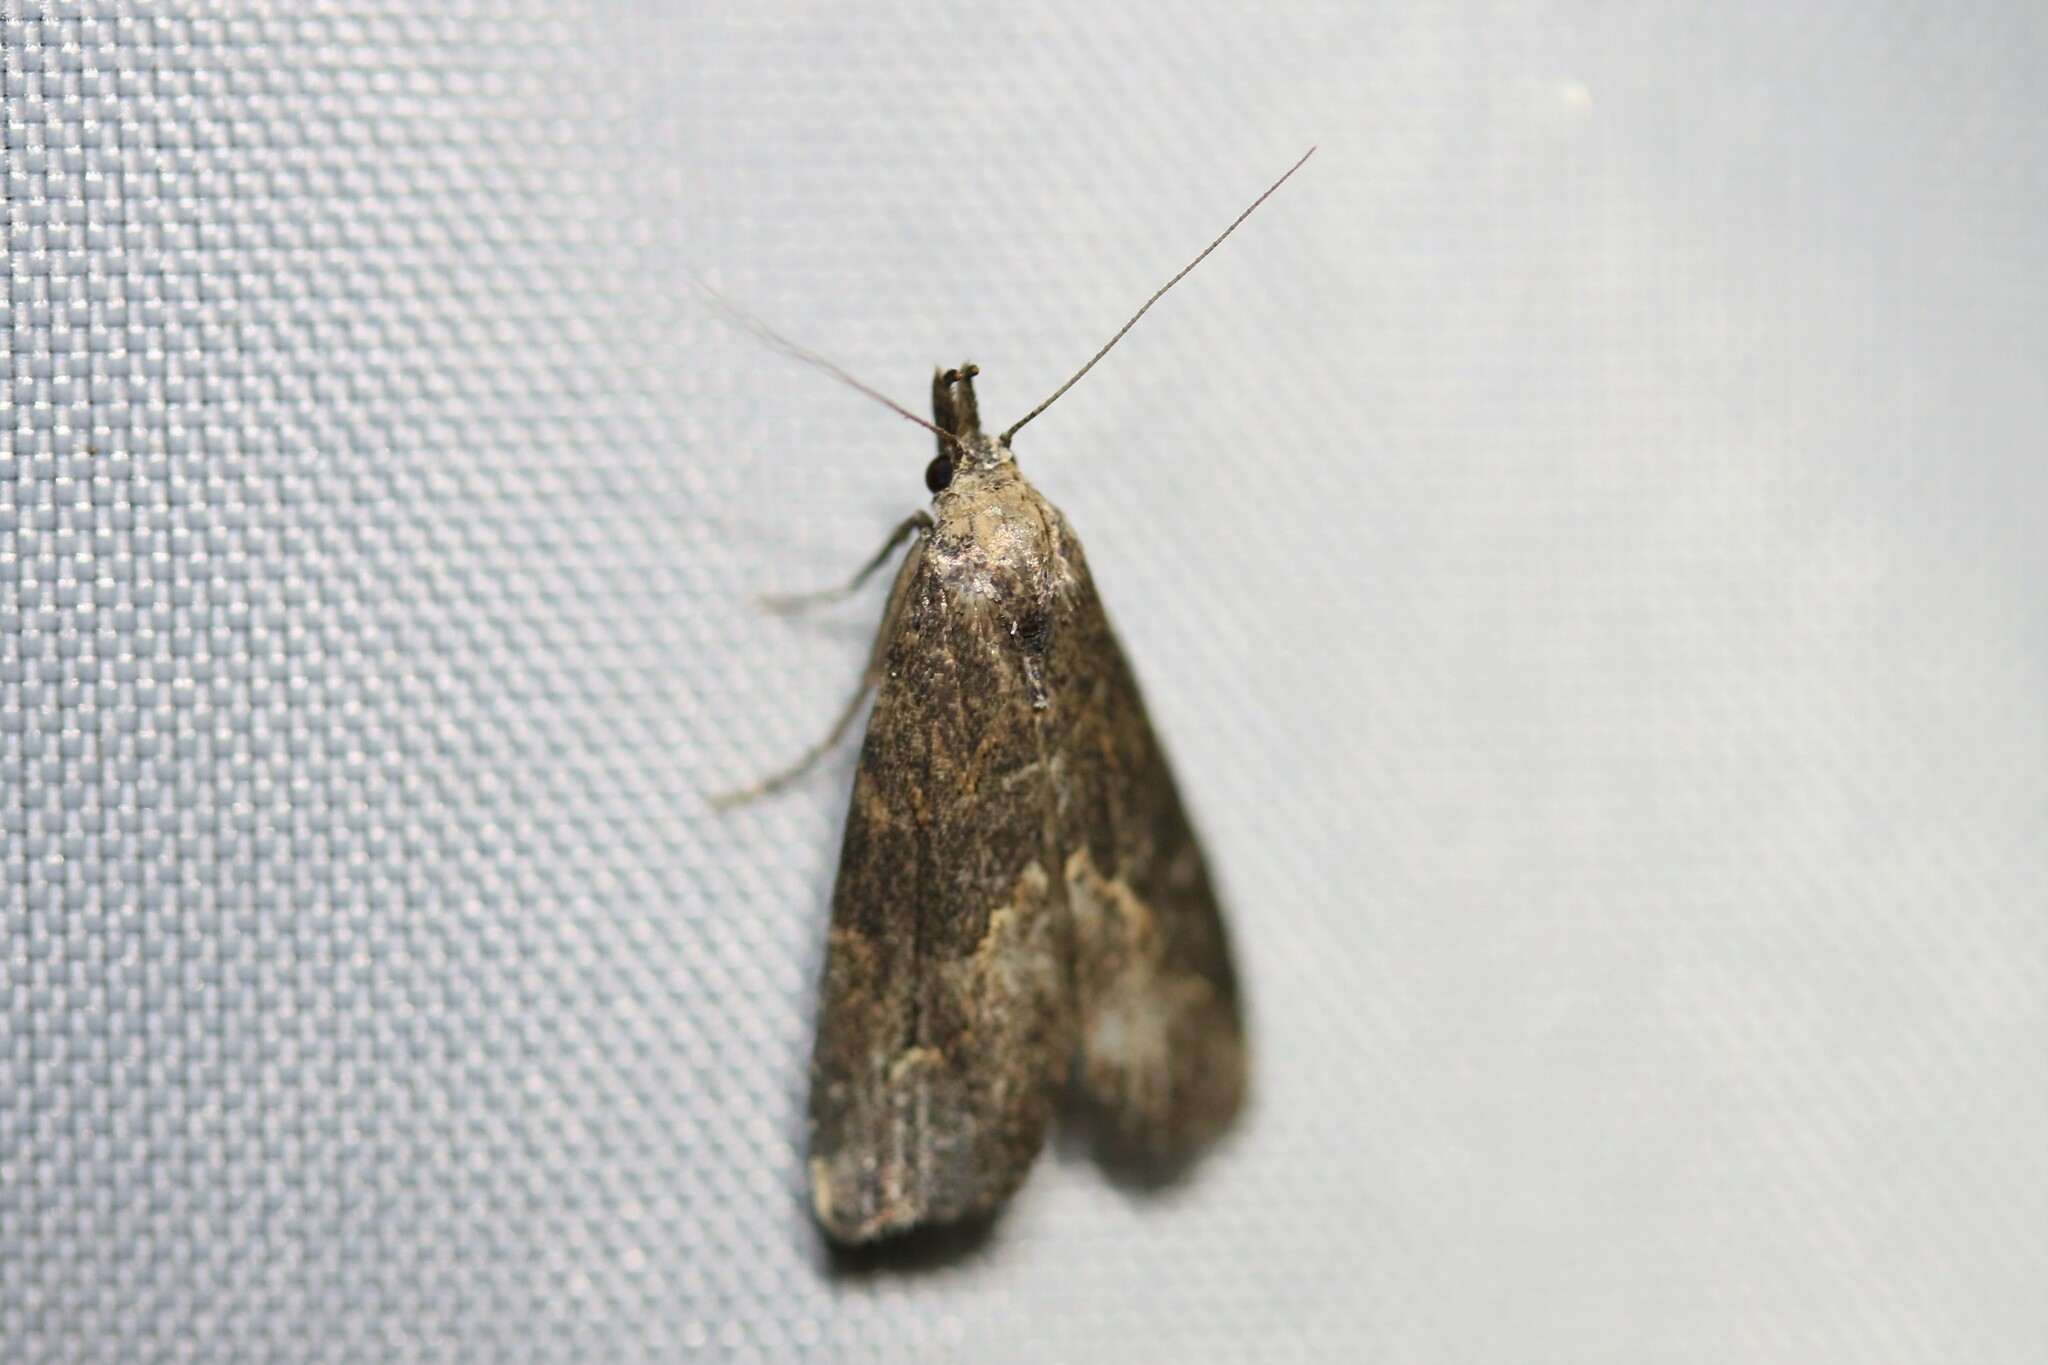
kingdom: Animalia
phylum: Arthropoda
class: Insecta
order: Lepidoptera
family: Erebidae
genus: Schrankia
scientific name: Schrankia costaestrigalis
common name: Pinion-streaked snout
